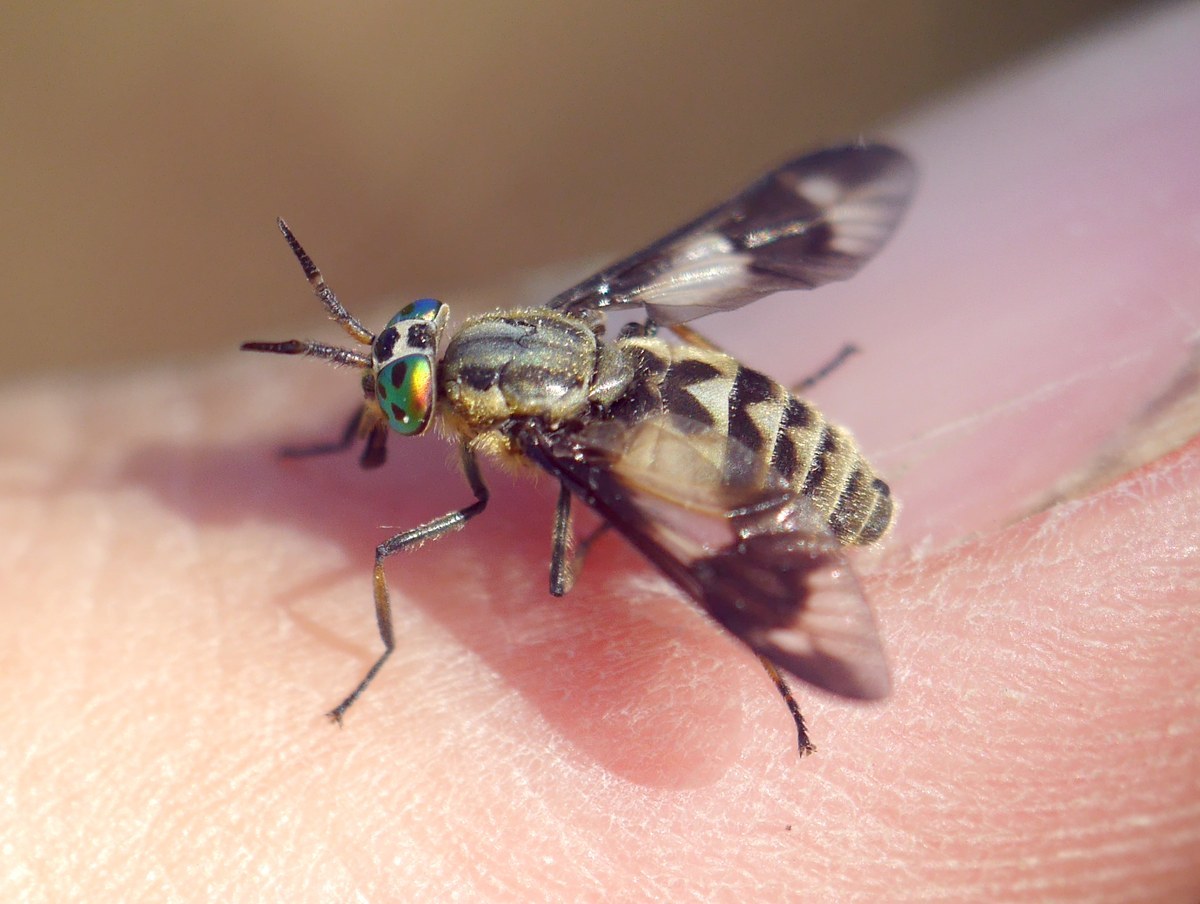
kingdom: Animalia
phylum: Arthropoda
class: Insecta
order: Diptera
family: Tabanidae
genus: Chrysops
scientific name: Chrysops relictus
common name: Twin-lobed deerfly
